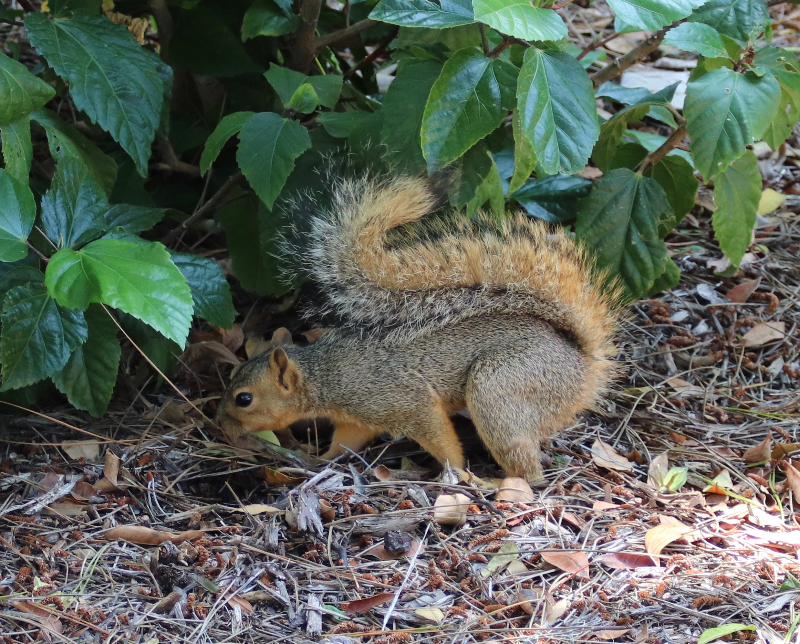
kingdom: Animalia
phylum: Chordata
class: Mammalia
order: Rodentia
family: Sciuridae
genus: Sciurus
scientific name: Sciurus niger
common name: Fox squirrel
